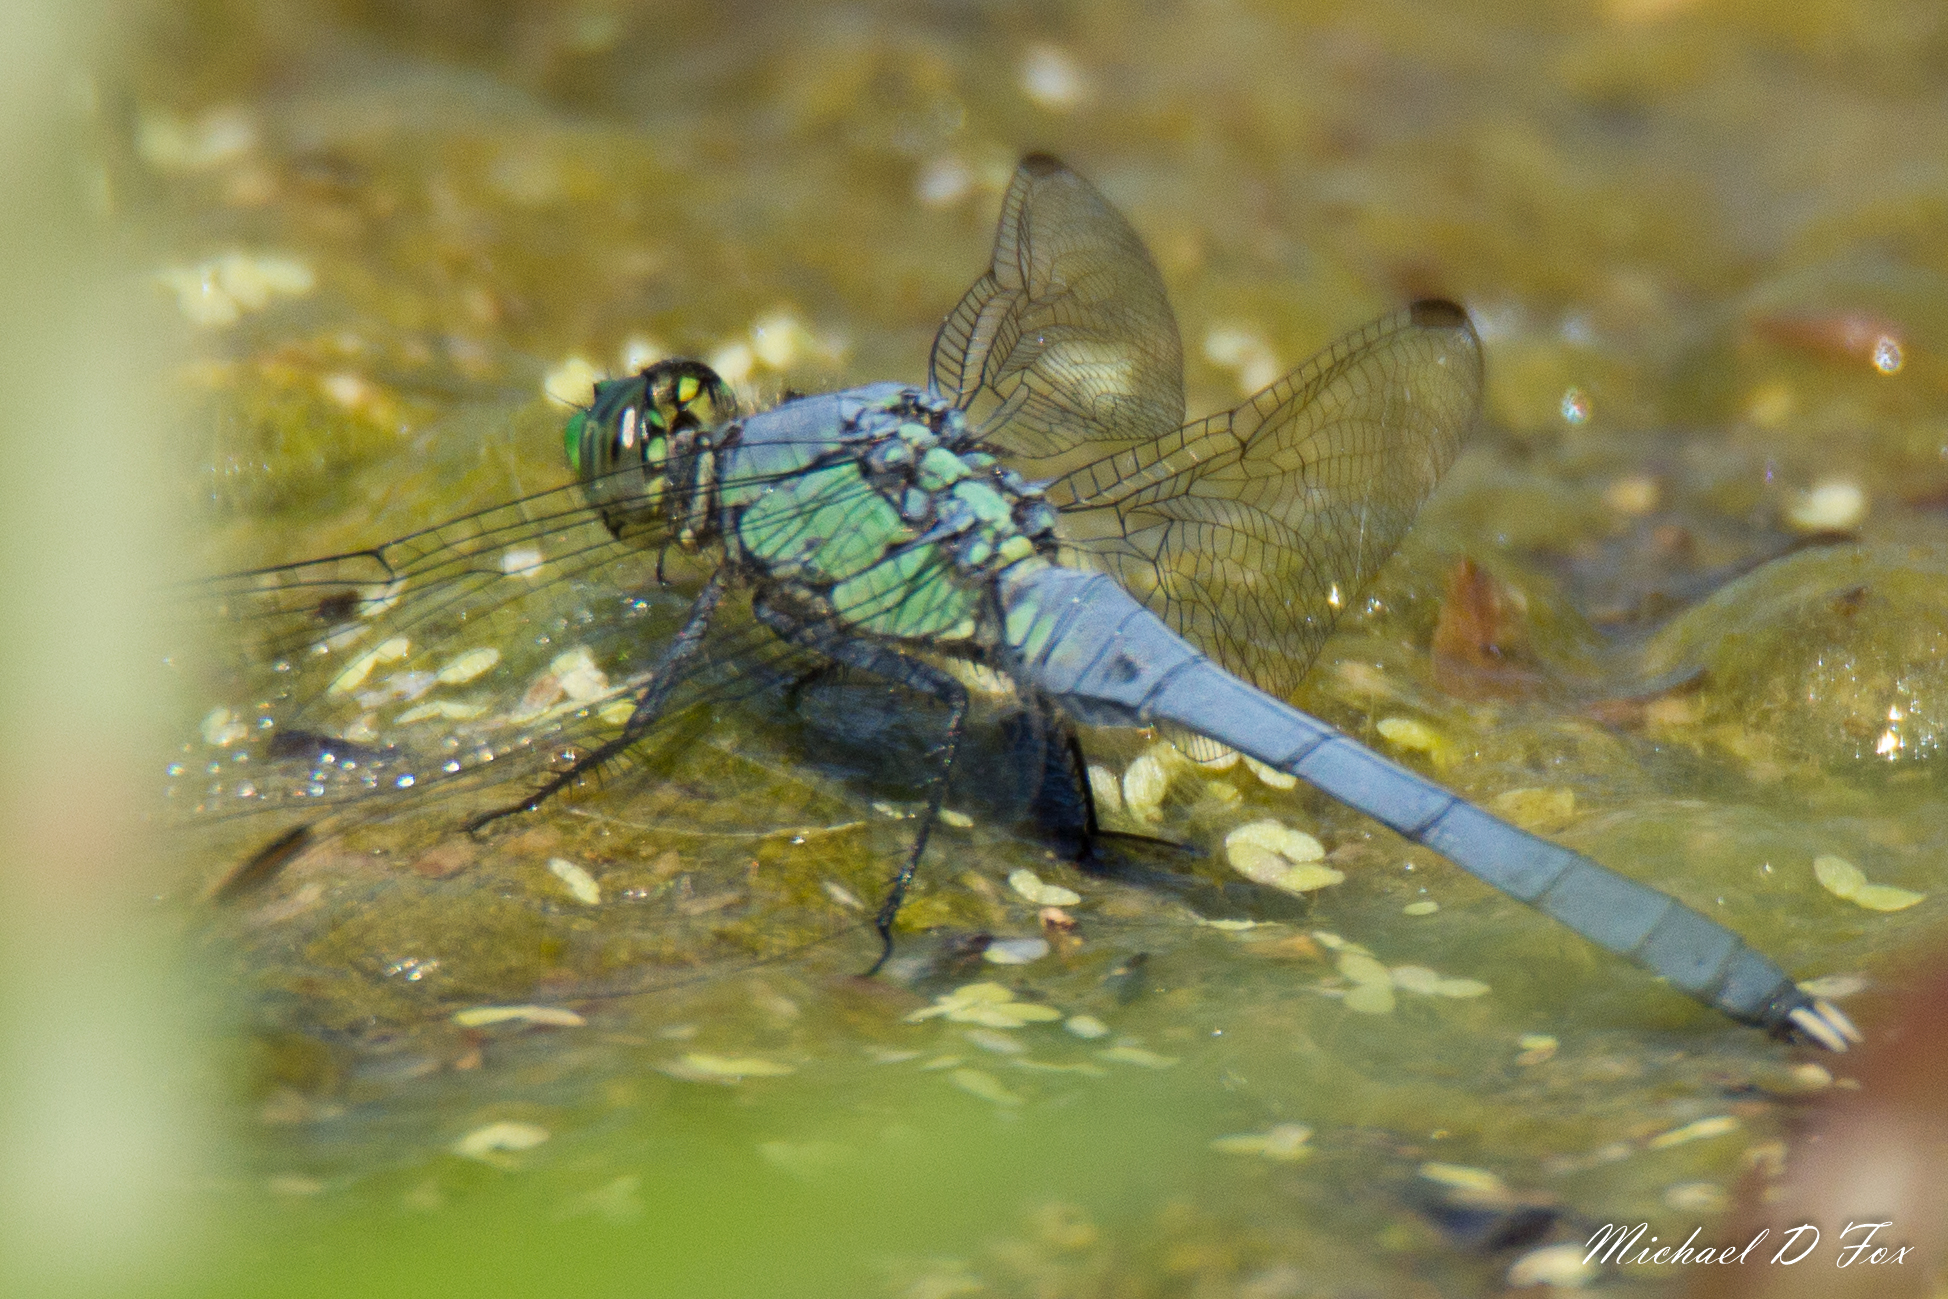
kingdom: Animalia
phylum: Arthropoda
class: Insecta
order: Odonata
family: Libellulidae
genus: Erythemis
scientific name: Erythemis simplicicollis
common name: Eastern pondhawk
